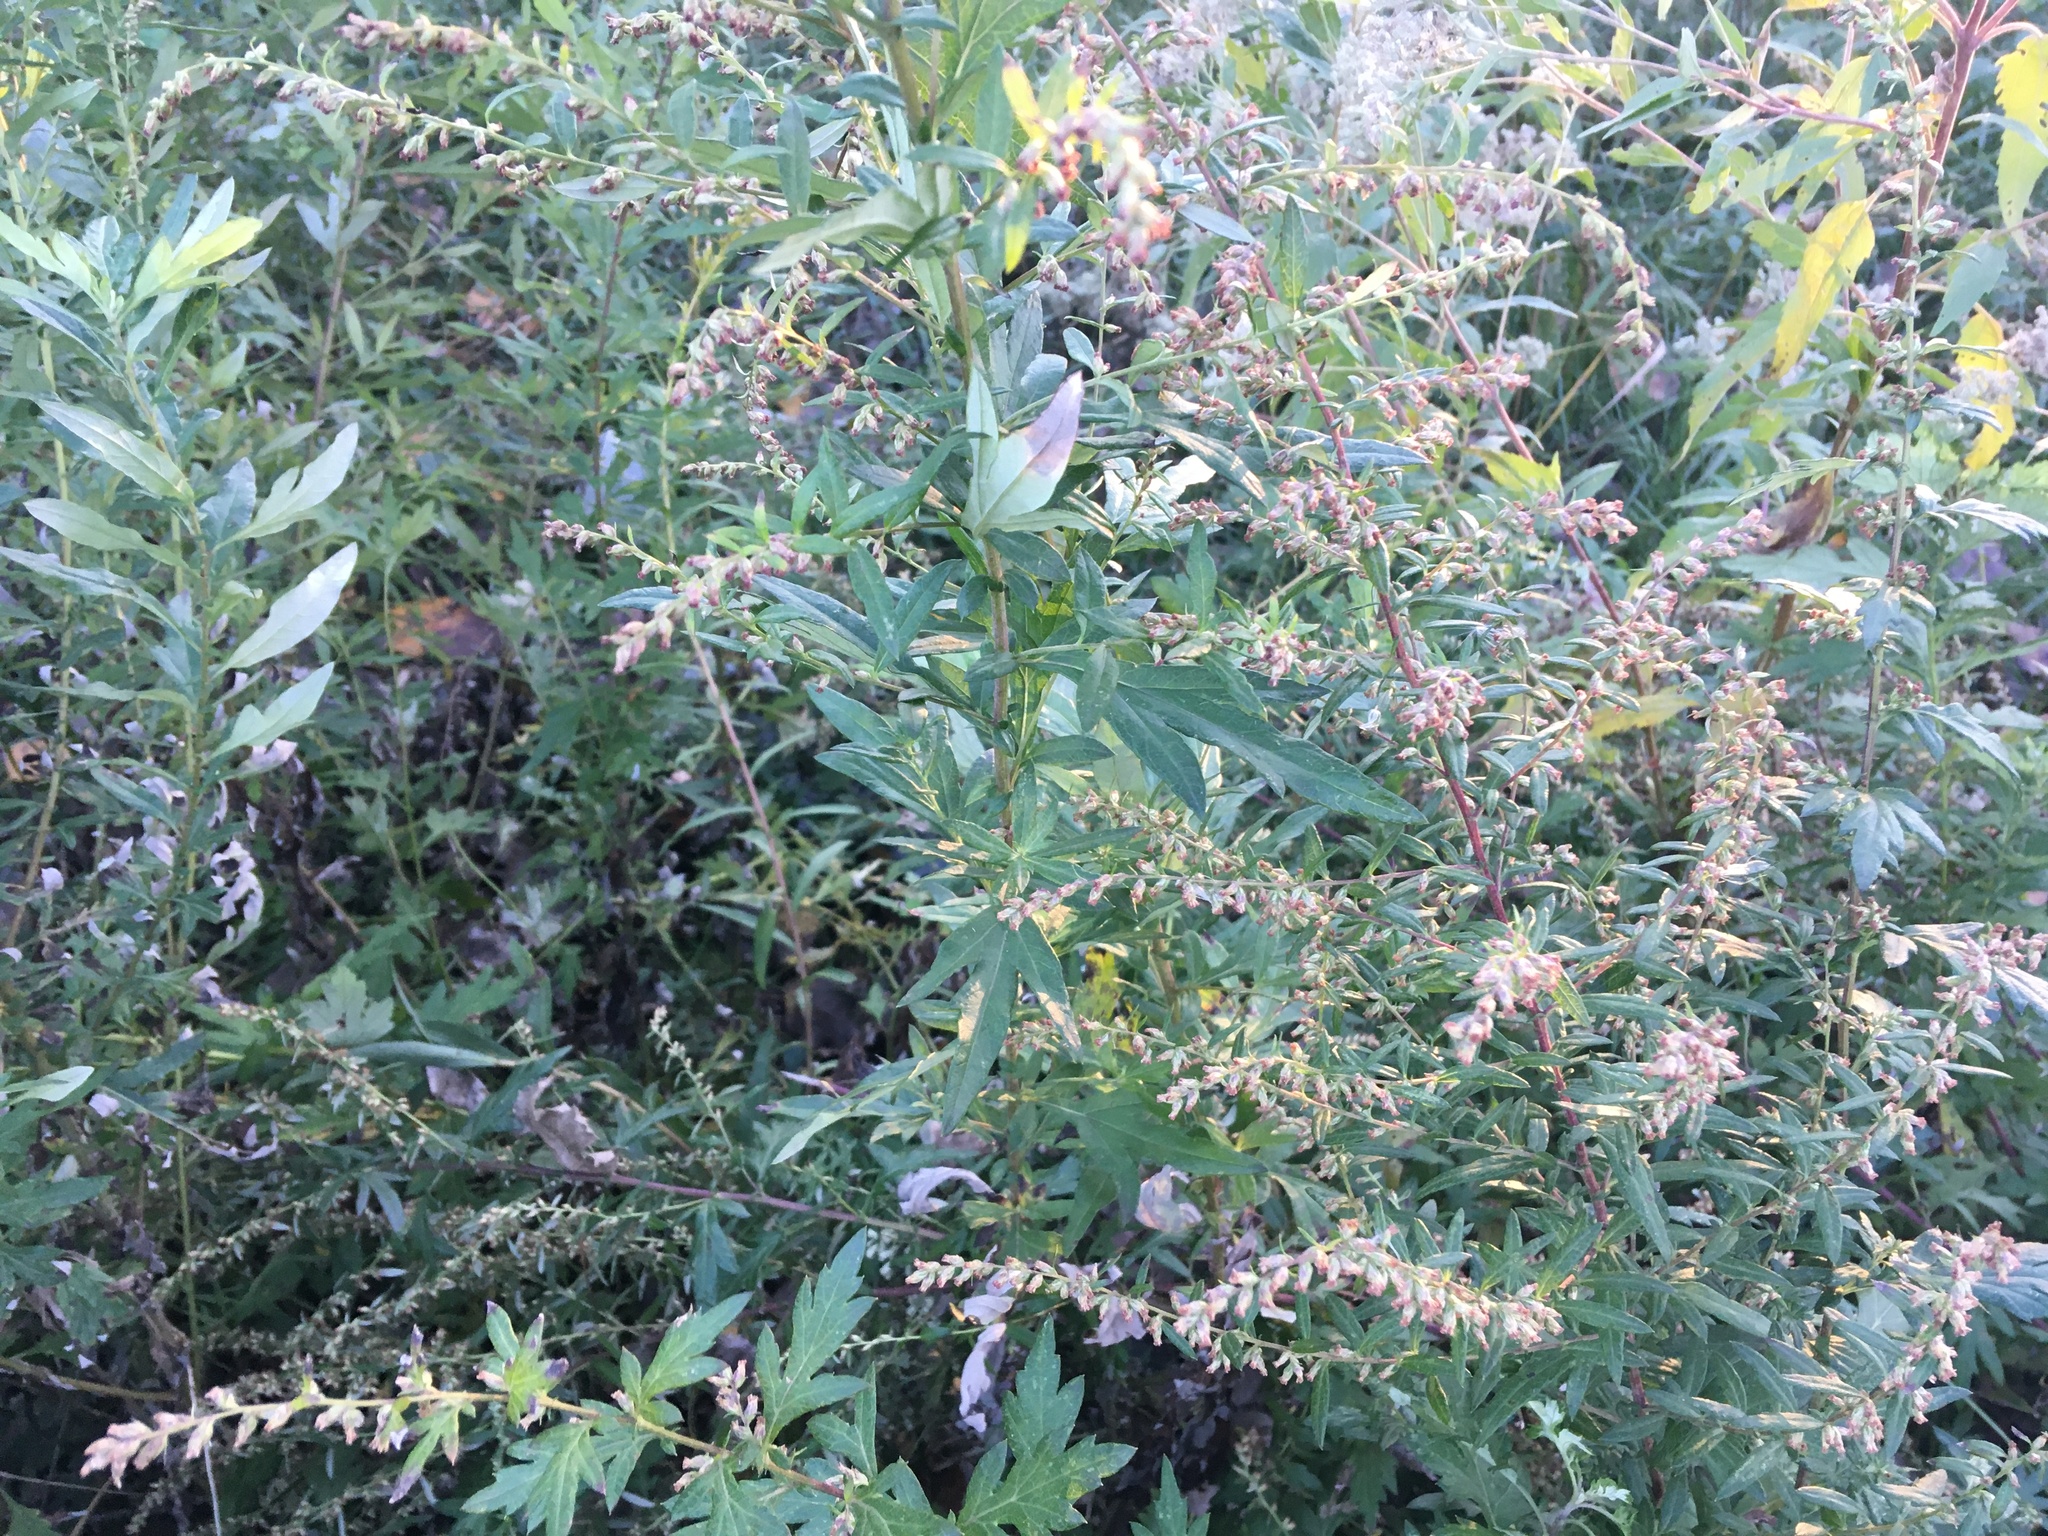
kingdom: Plantae
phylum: Tracheophyta
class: Magnoliopsida
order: Asterales
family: Asteraceae
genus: Artemisia
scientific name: Artemisia vulgaris
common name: Mugwort
